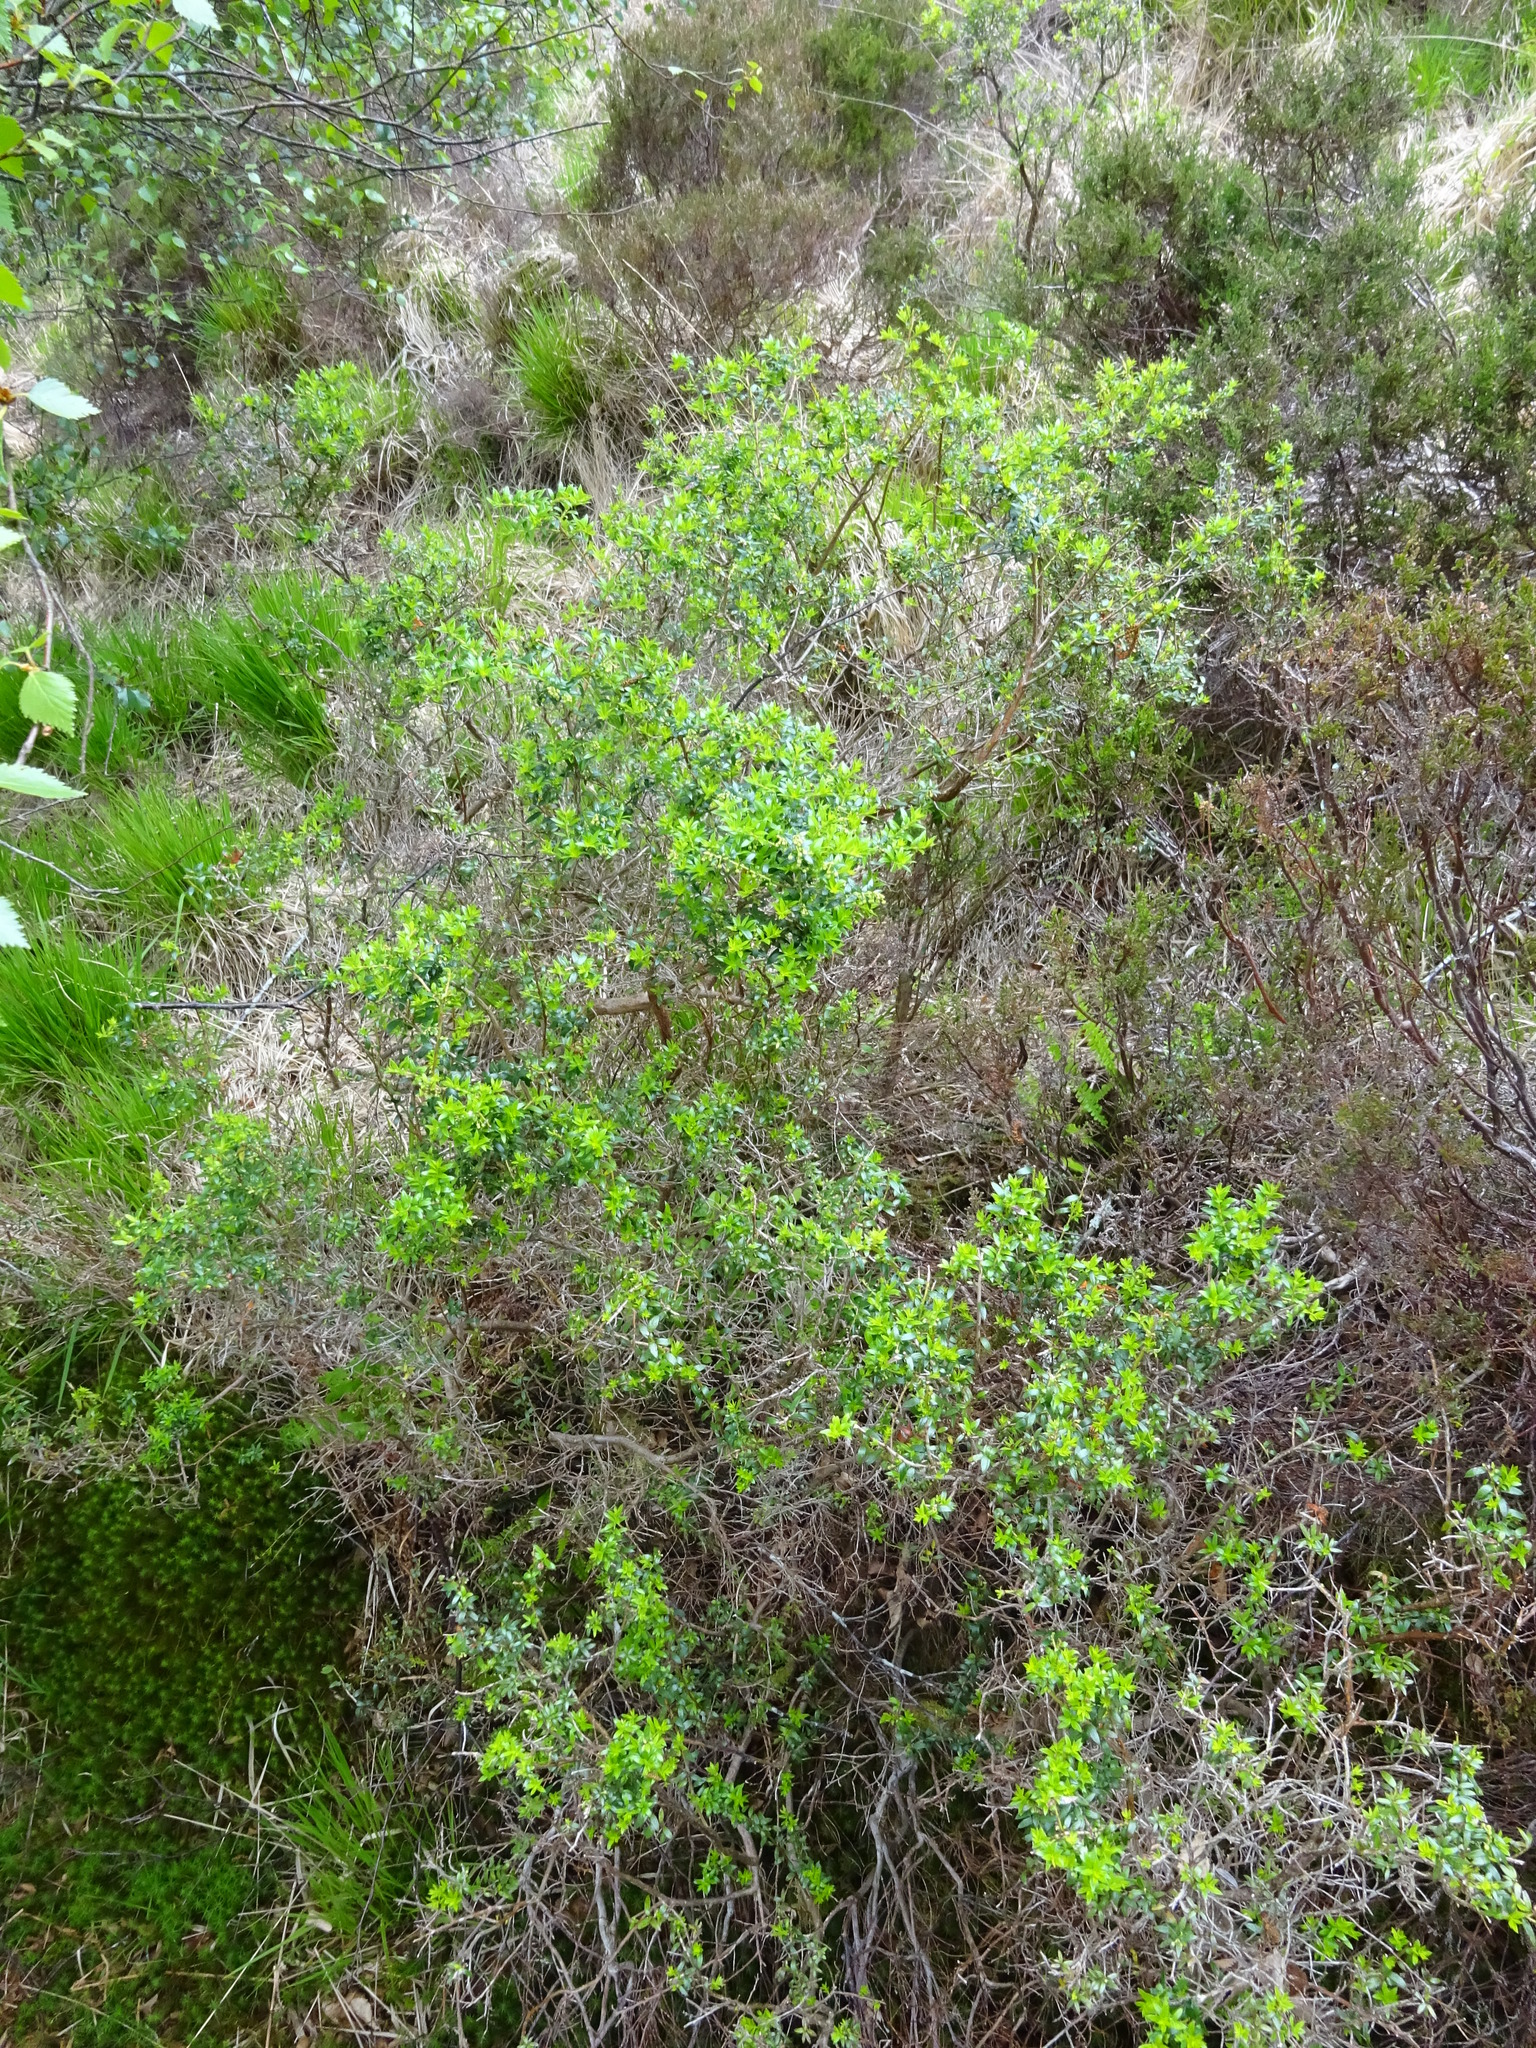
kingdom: Plantae
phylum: Tracheophyta
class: Magnoliopsida
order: Ericales
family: Ericaceae
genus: Gaultheria
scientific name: Gaultheria mucronata
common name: Prickly heath
